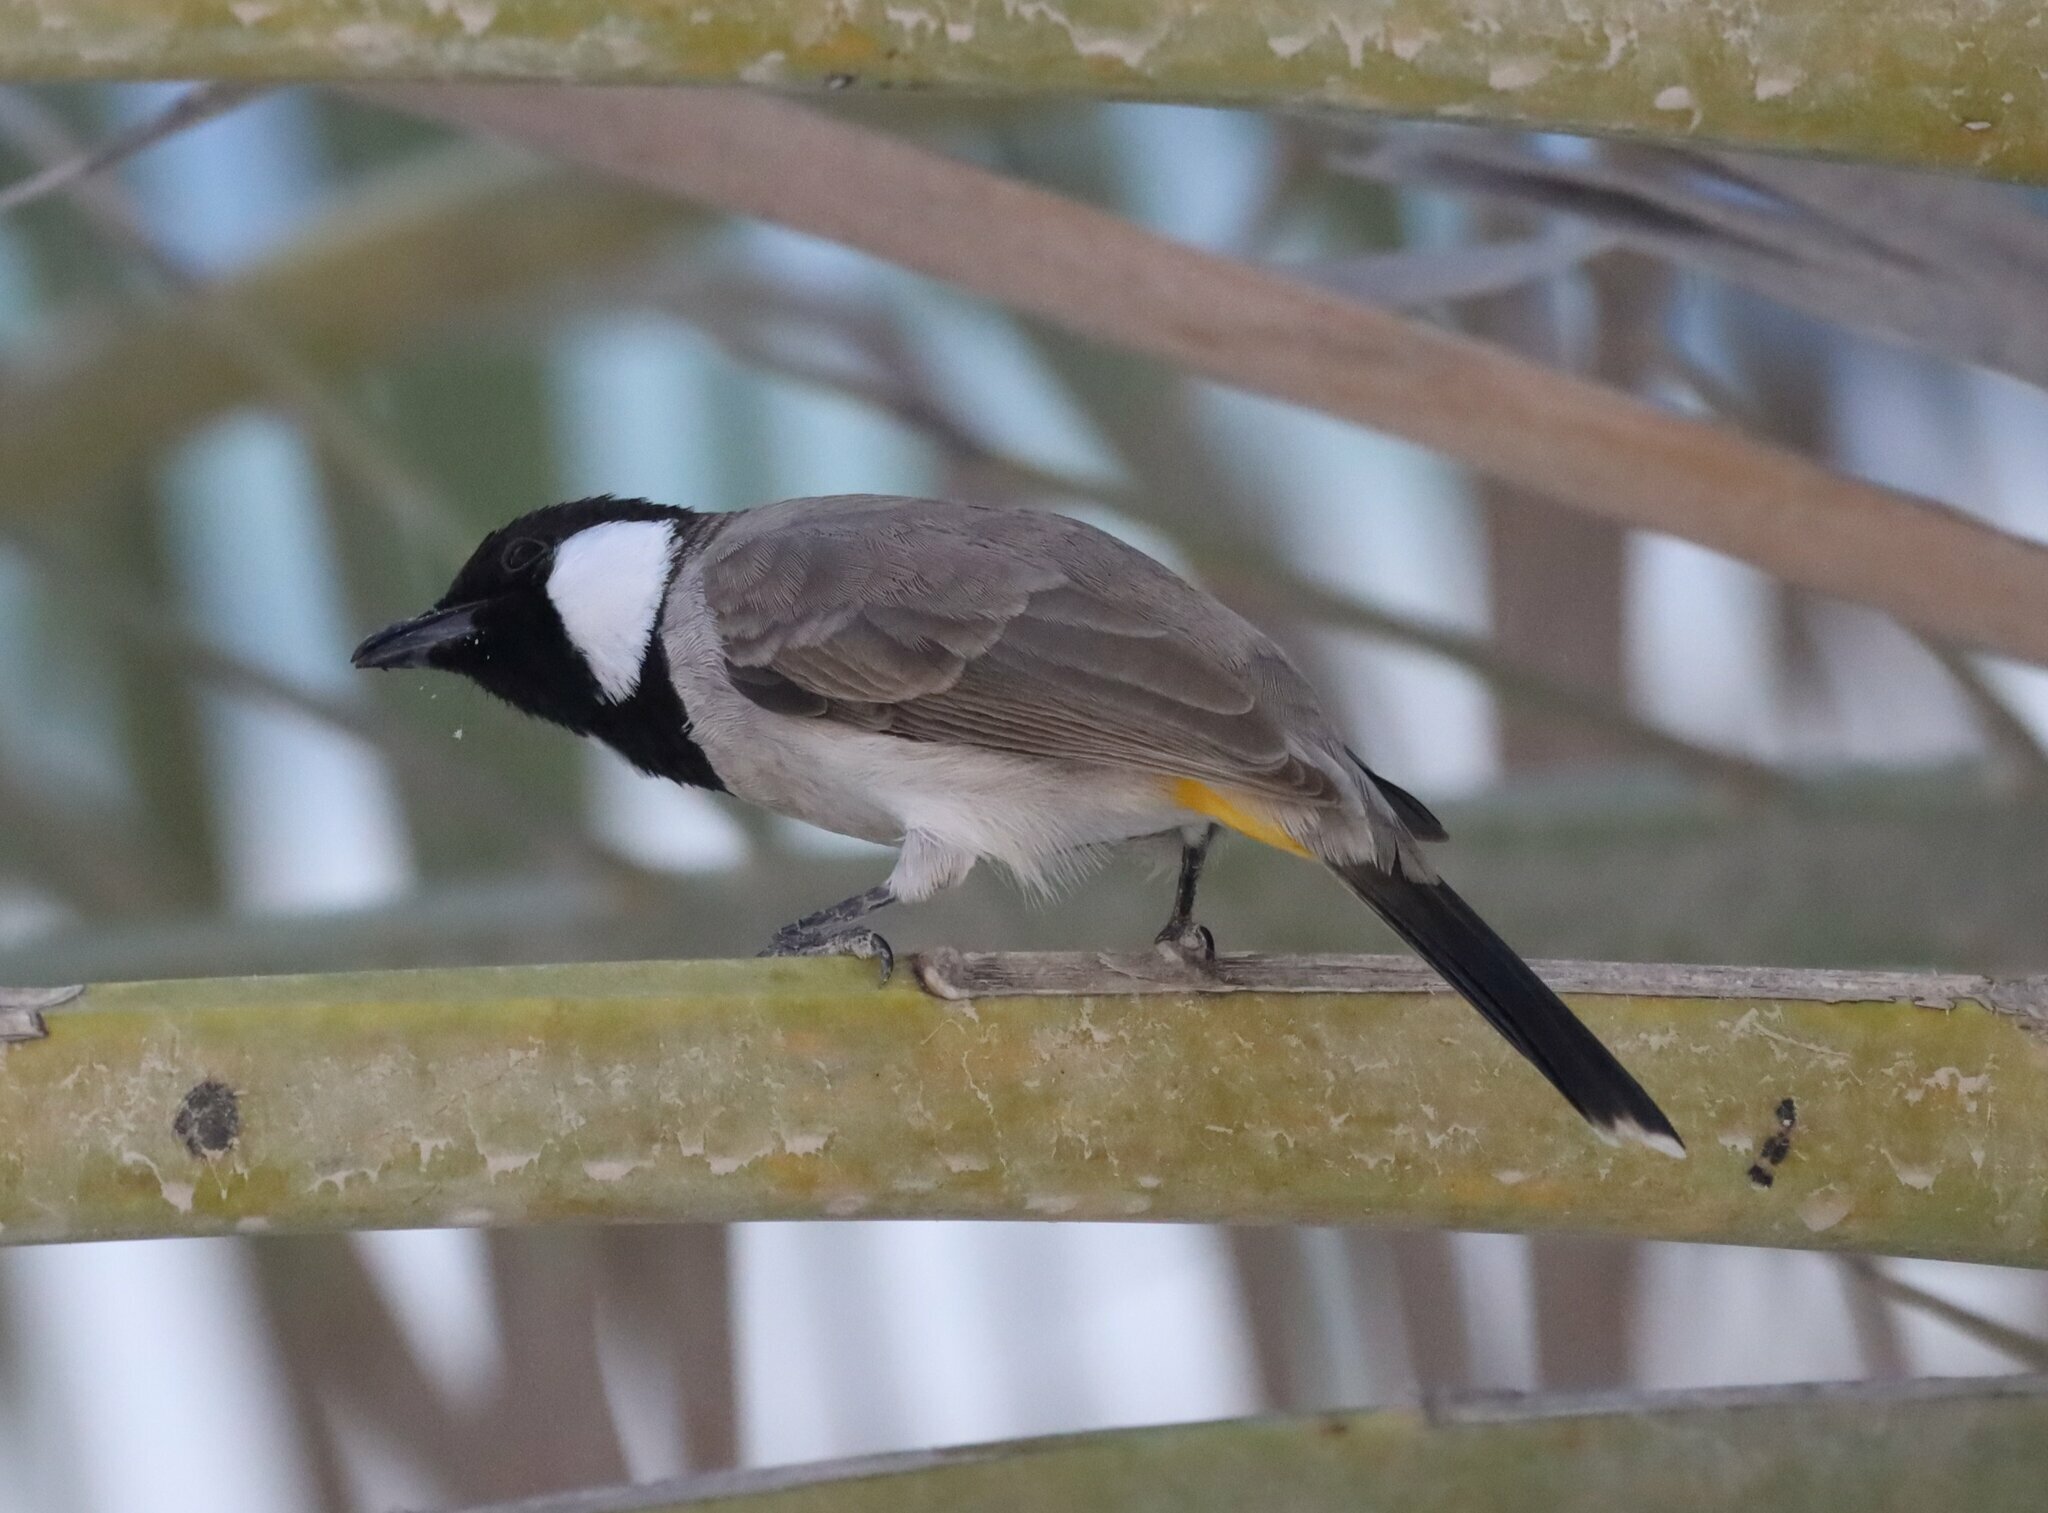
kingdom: Animalia
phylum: Chordata
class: Aves
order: Passeriformes
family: Pycnonotidae
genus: Pycnonotus
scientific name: Pycnonotus leucotis
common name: White-eared bulbul
